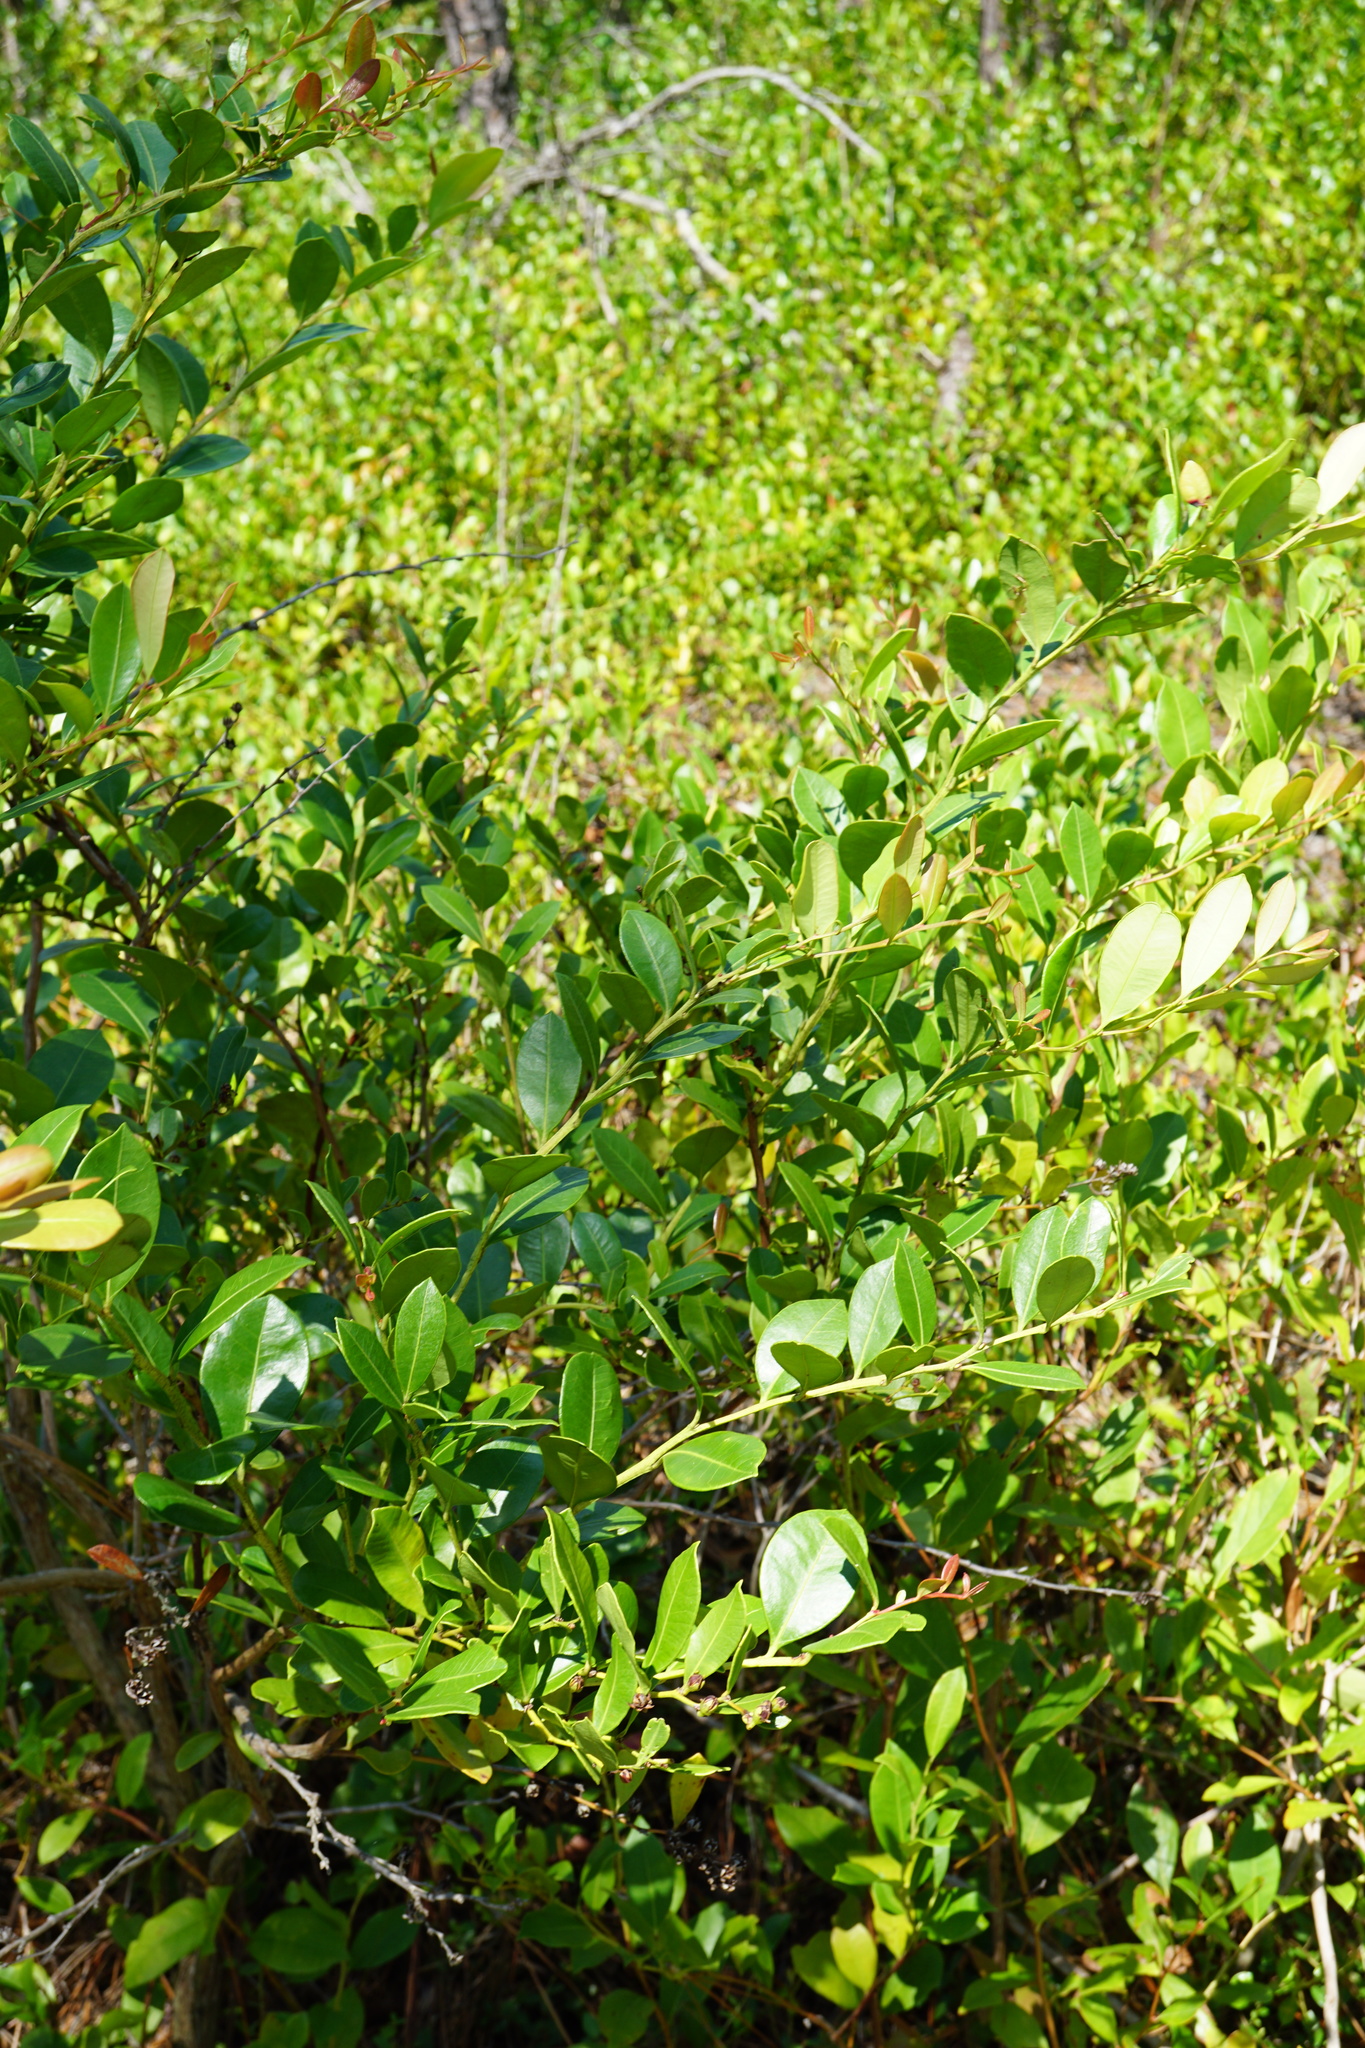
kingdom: Plantae
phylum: Tracheophyta
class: Magnoliopsida
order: Ericales
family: Ericaceae
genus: Lyonia
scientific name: Lyonia lucida
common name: Fetterbush
